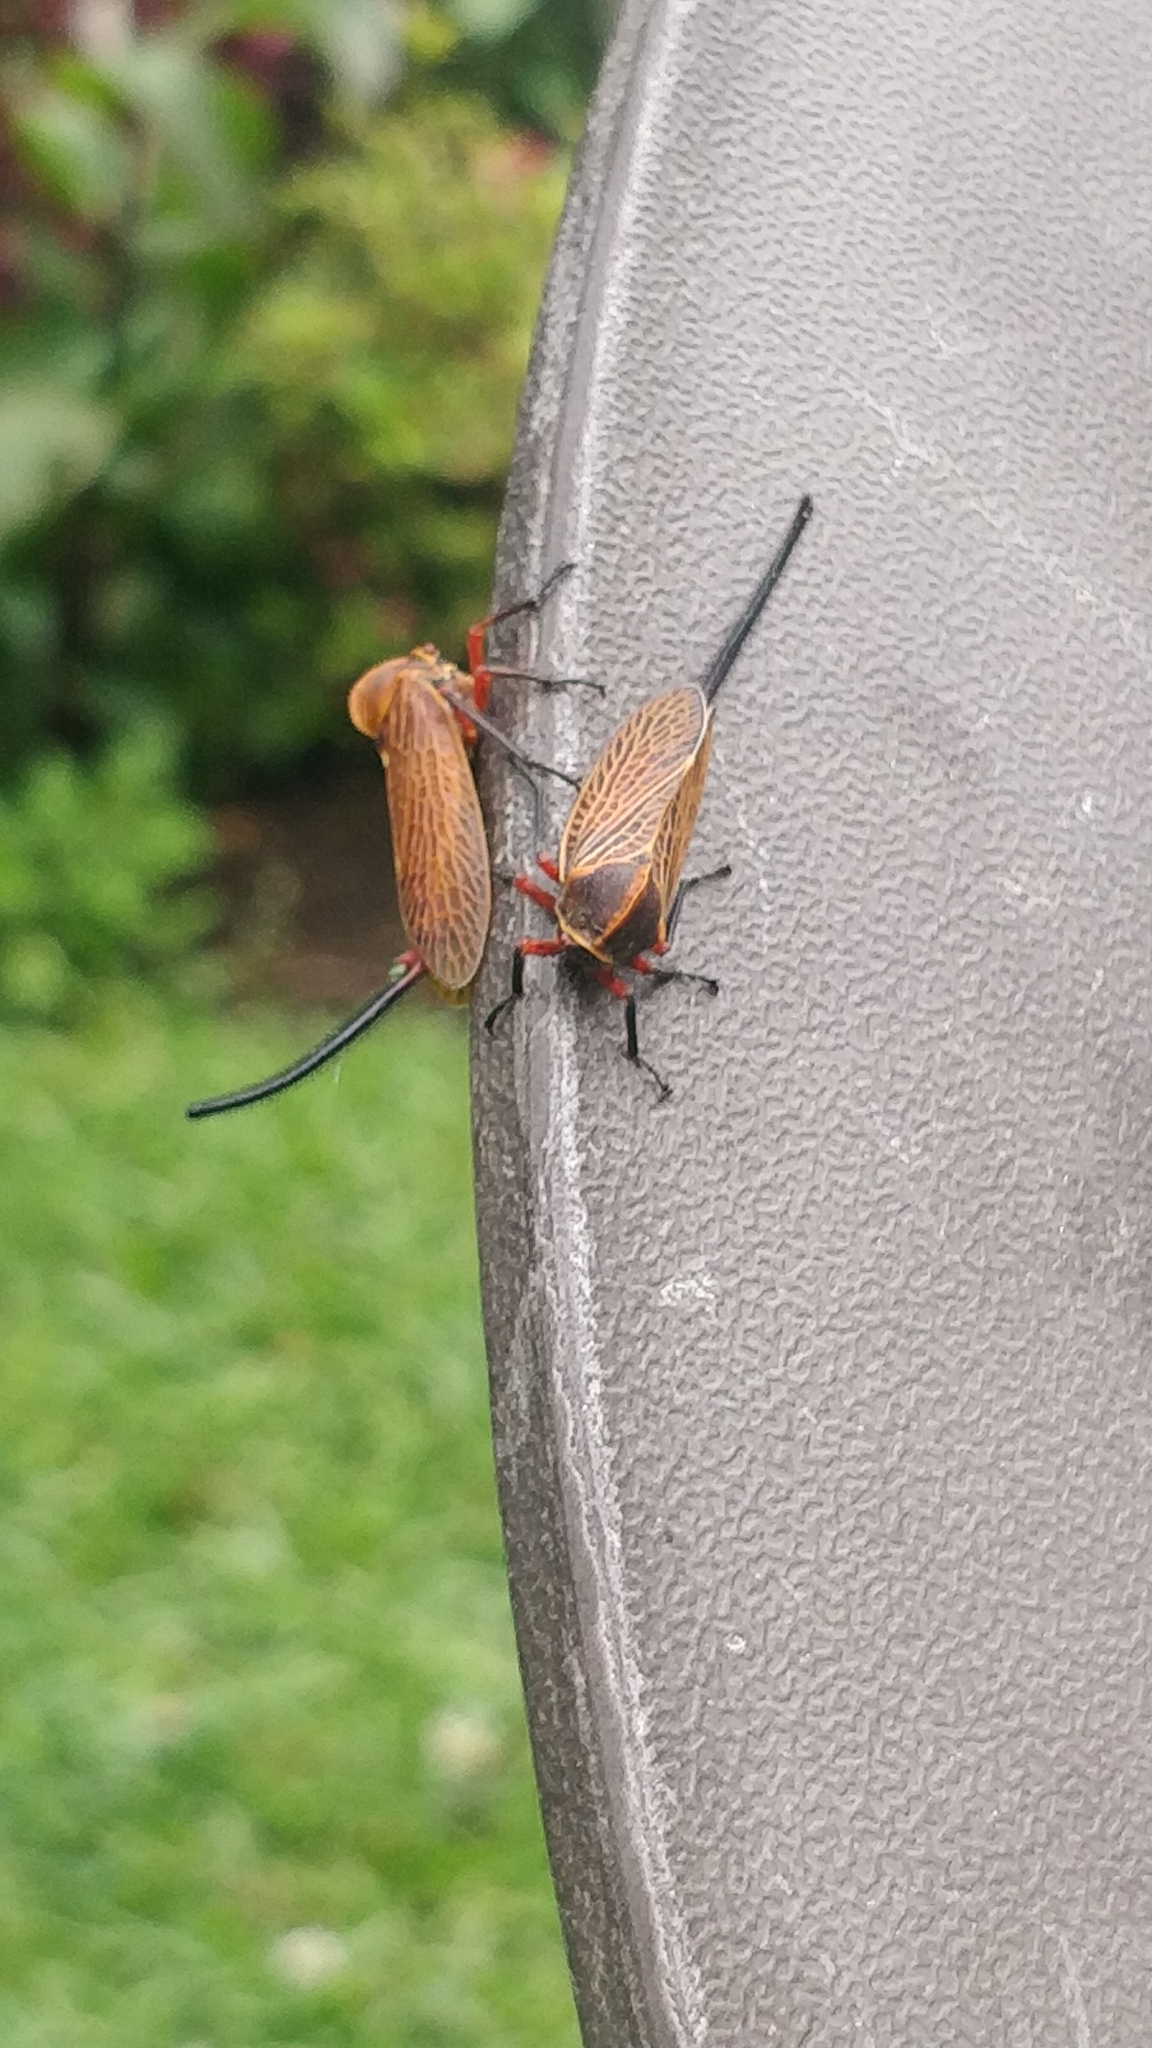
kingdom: Animalia
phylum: Arthropoda
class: Insecta
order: Hemiptera
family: Aetalionidae
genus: Darthula
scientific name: Darthula hardwickii
